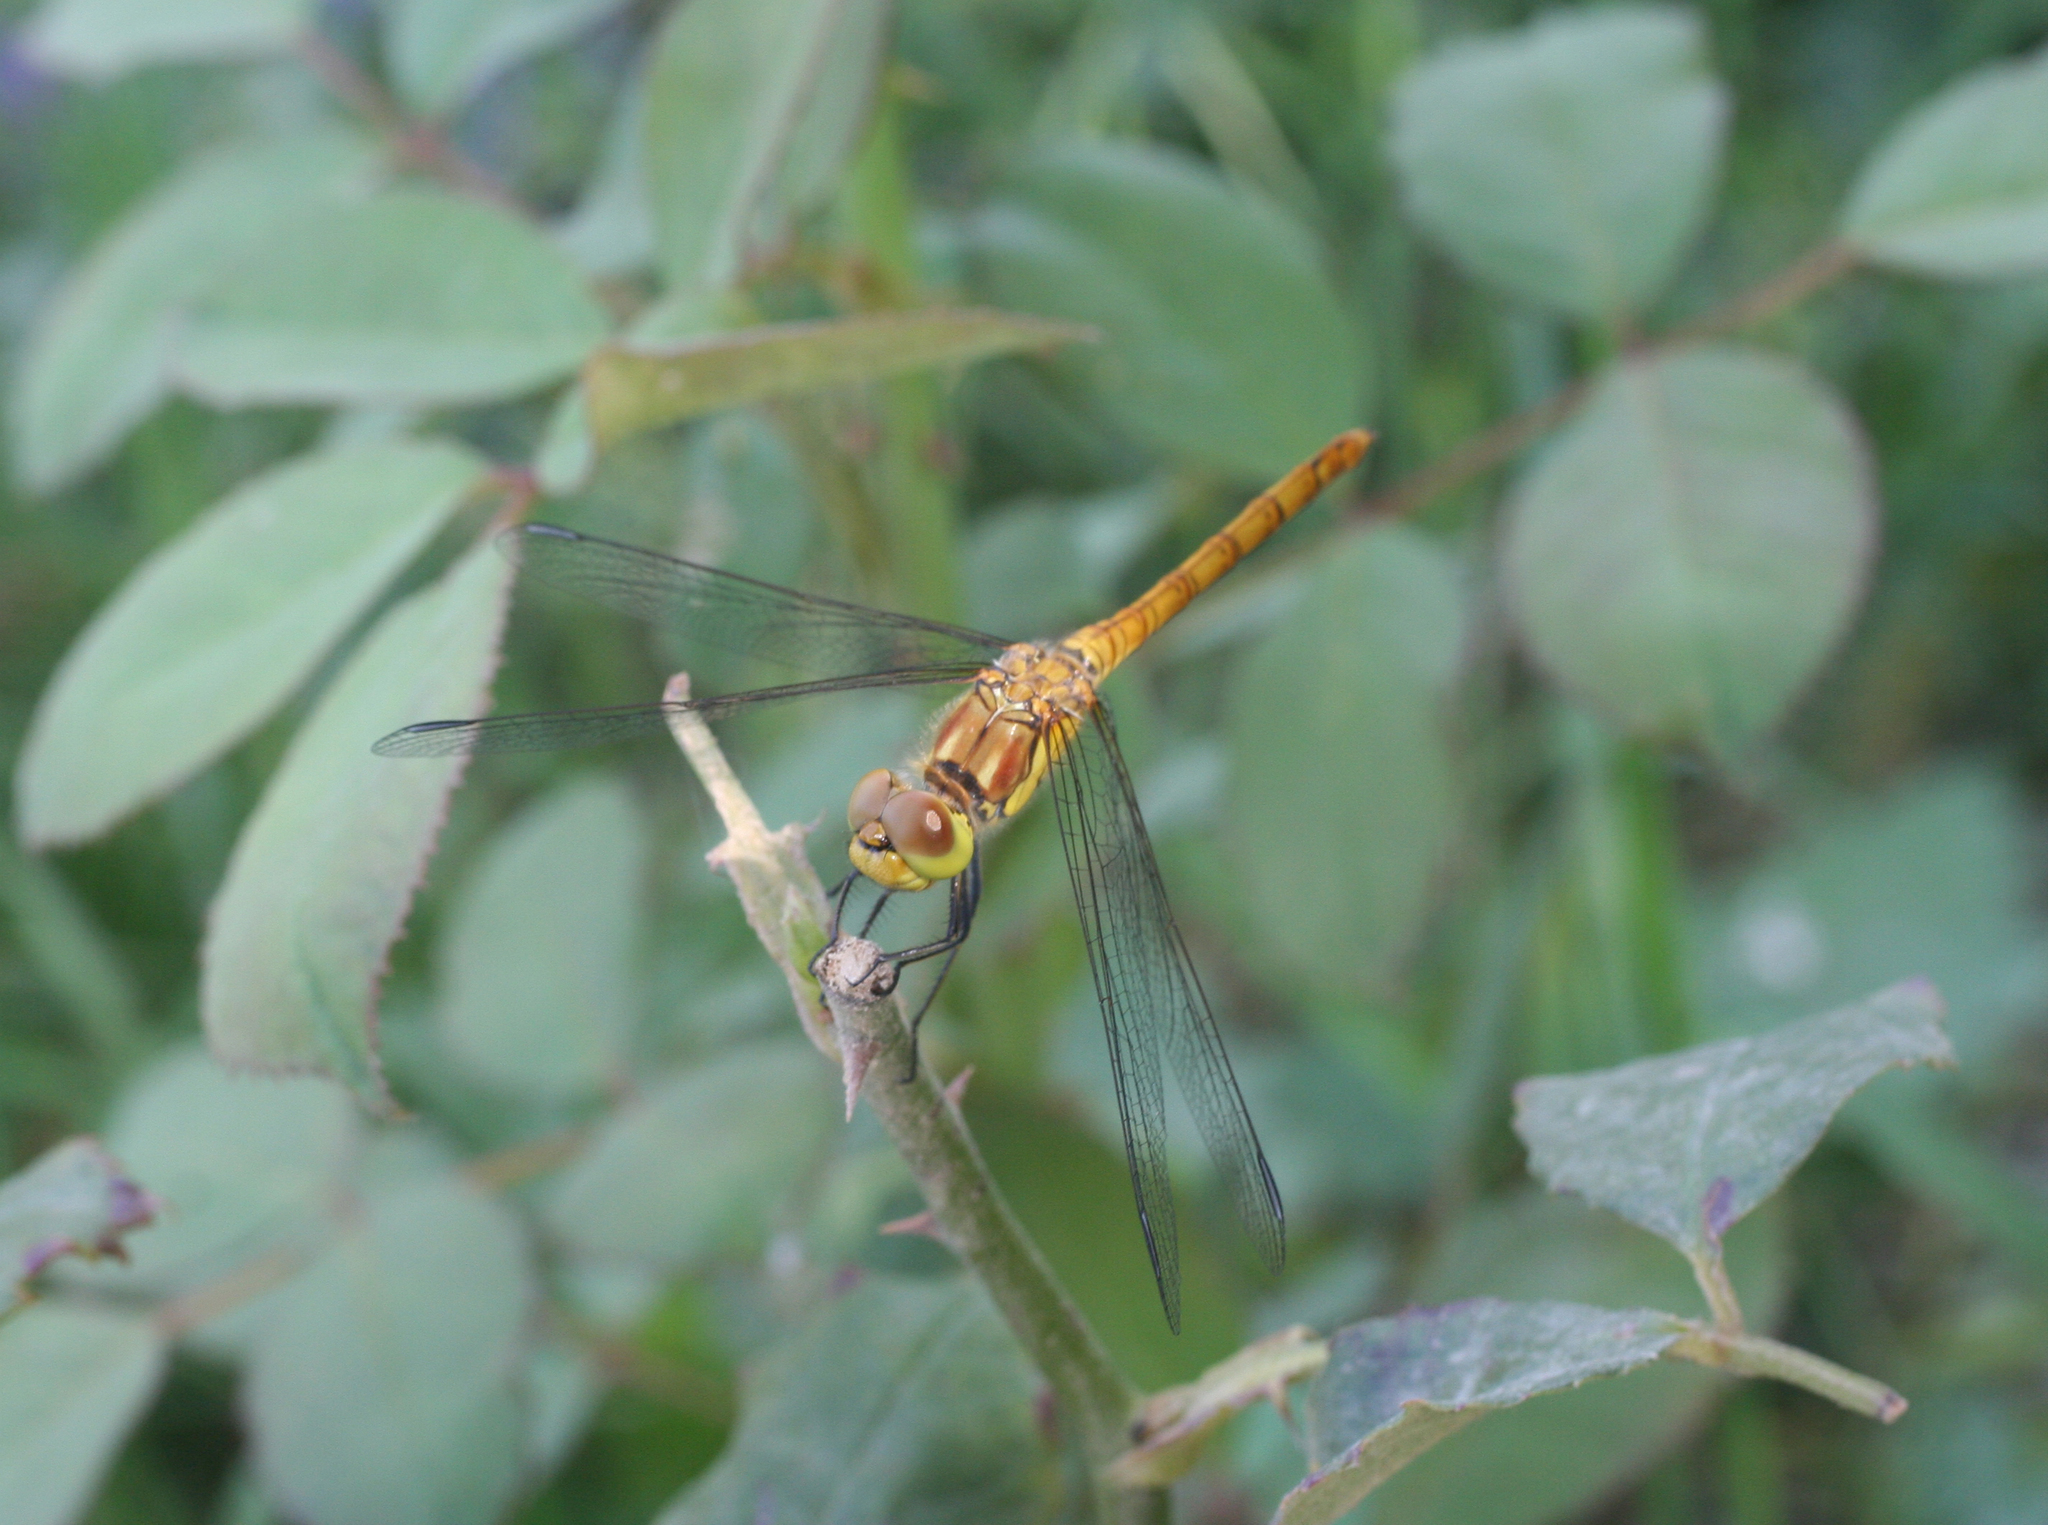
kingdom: Animalia
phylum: Arthropoda
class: Insecta
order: Odonata
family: Libellulidae
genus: Sympetrum
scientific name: Sympetrum striolatum
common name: Common darter
